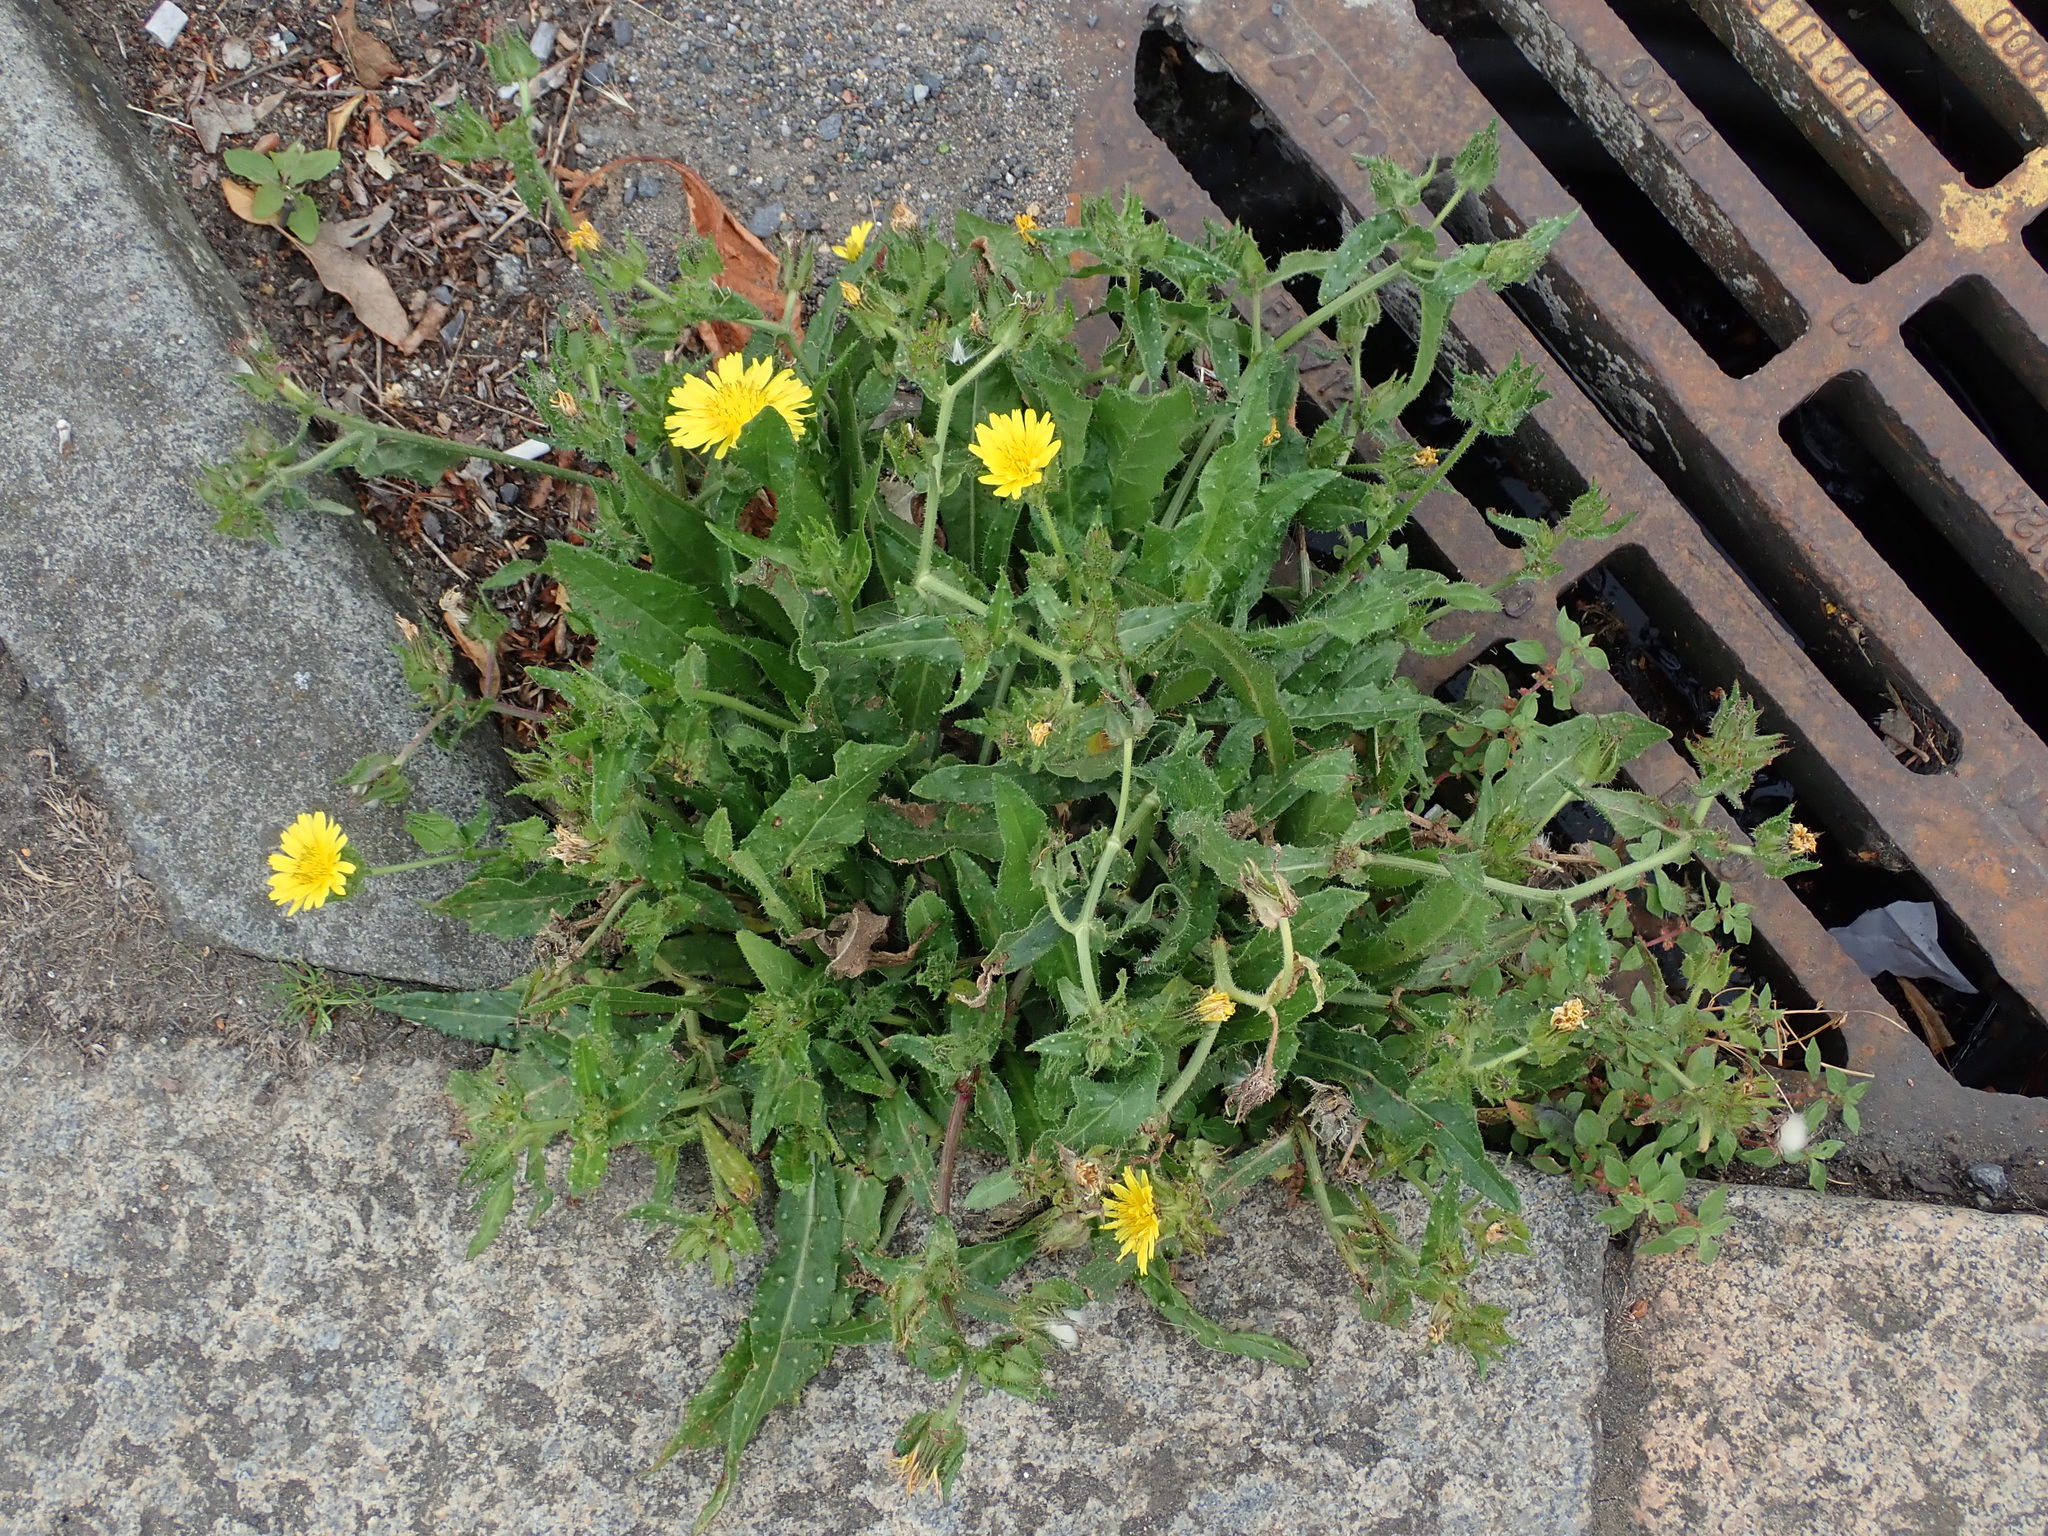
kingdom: Plantae
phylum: Tracheophyta
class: Magnoliopsida
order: Asterales
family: Asteraceae
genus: Helminthotheca
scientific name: Helminthotheca echioides
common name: Ox-tongue
